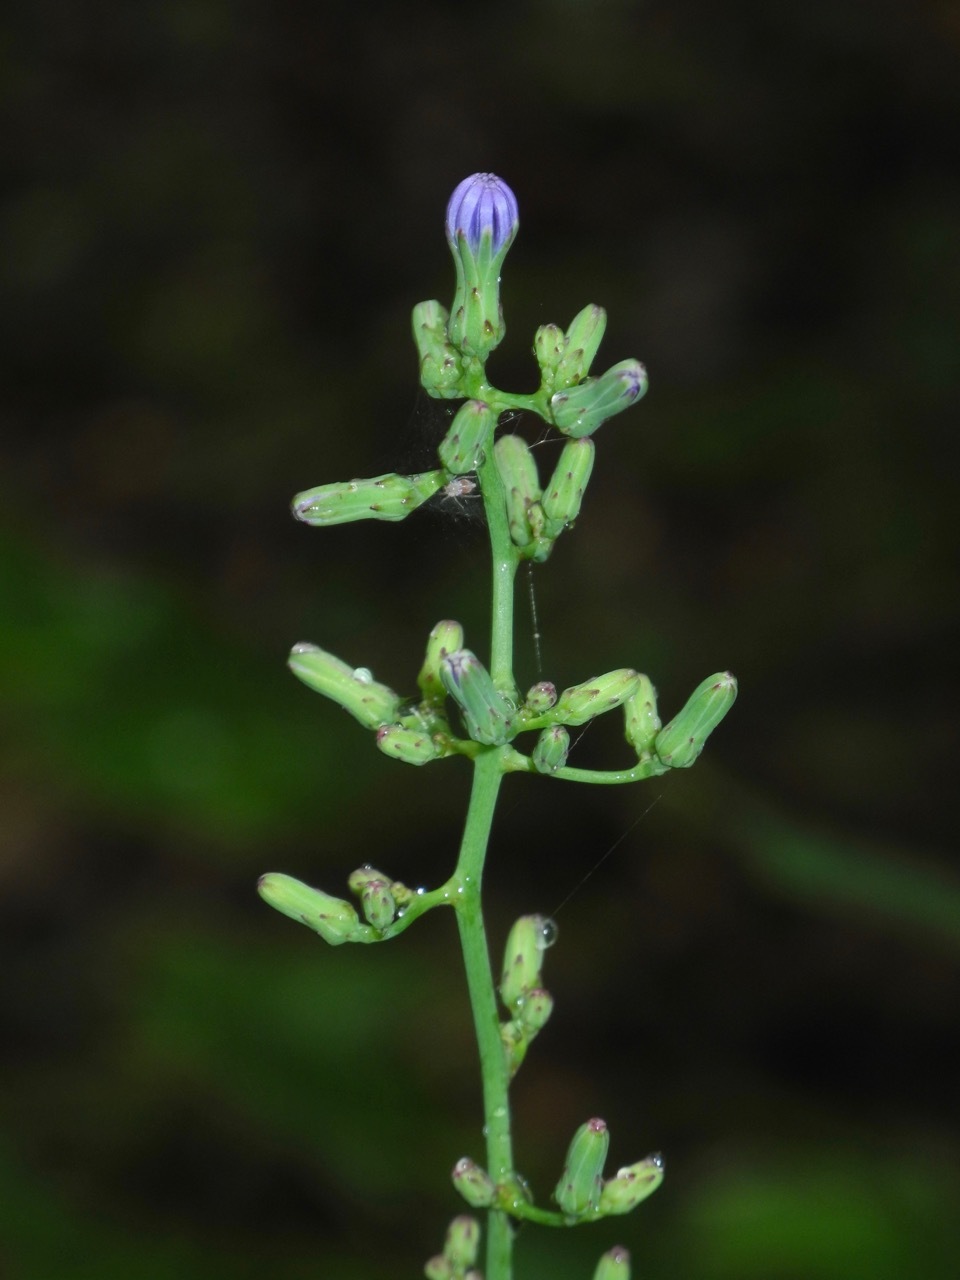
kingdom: Plantae
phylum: Tracheophyta
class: Magnoliopsida
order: Asterales
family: Asteraceae
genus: Lactuca
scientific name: Lactuca floridana
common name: Woodland lettuce
